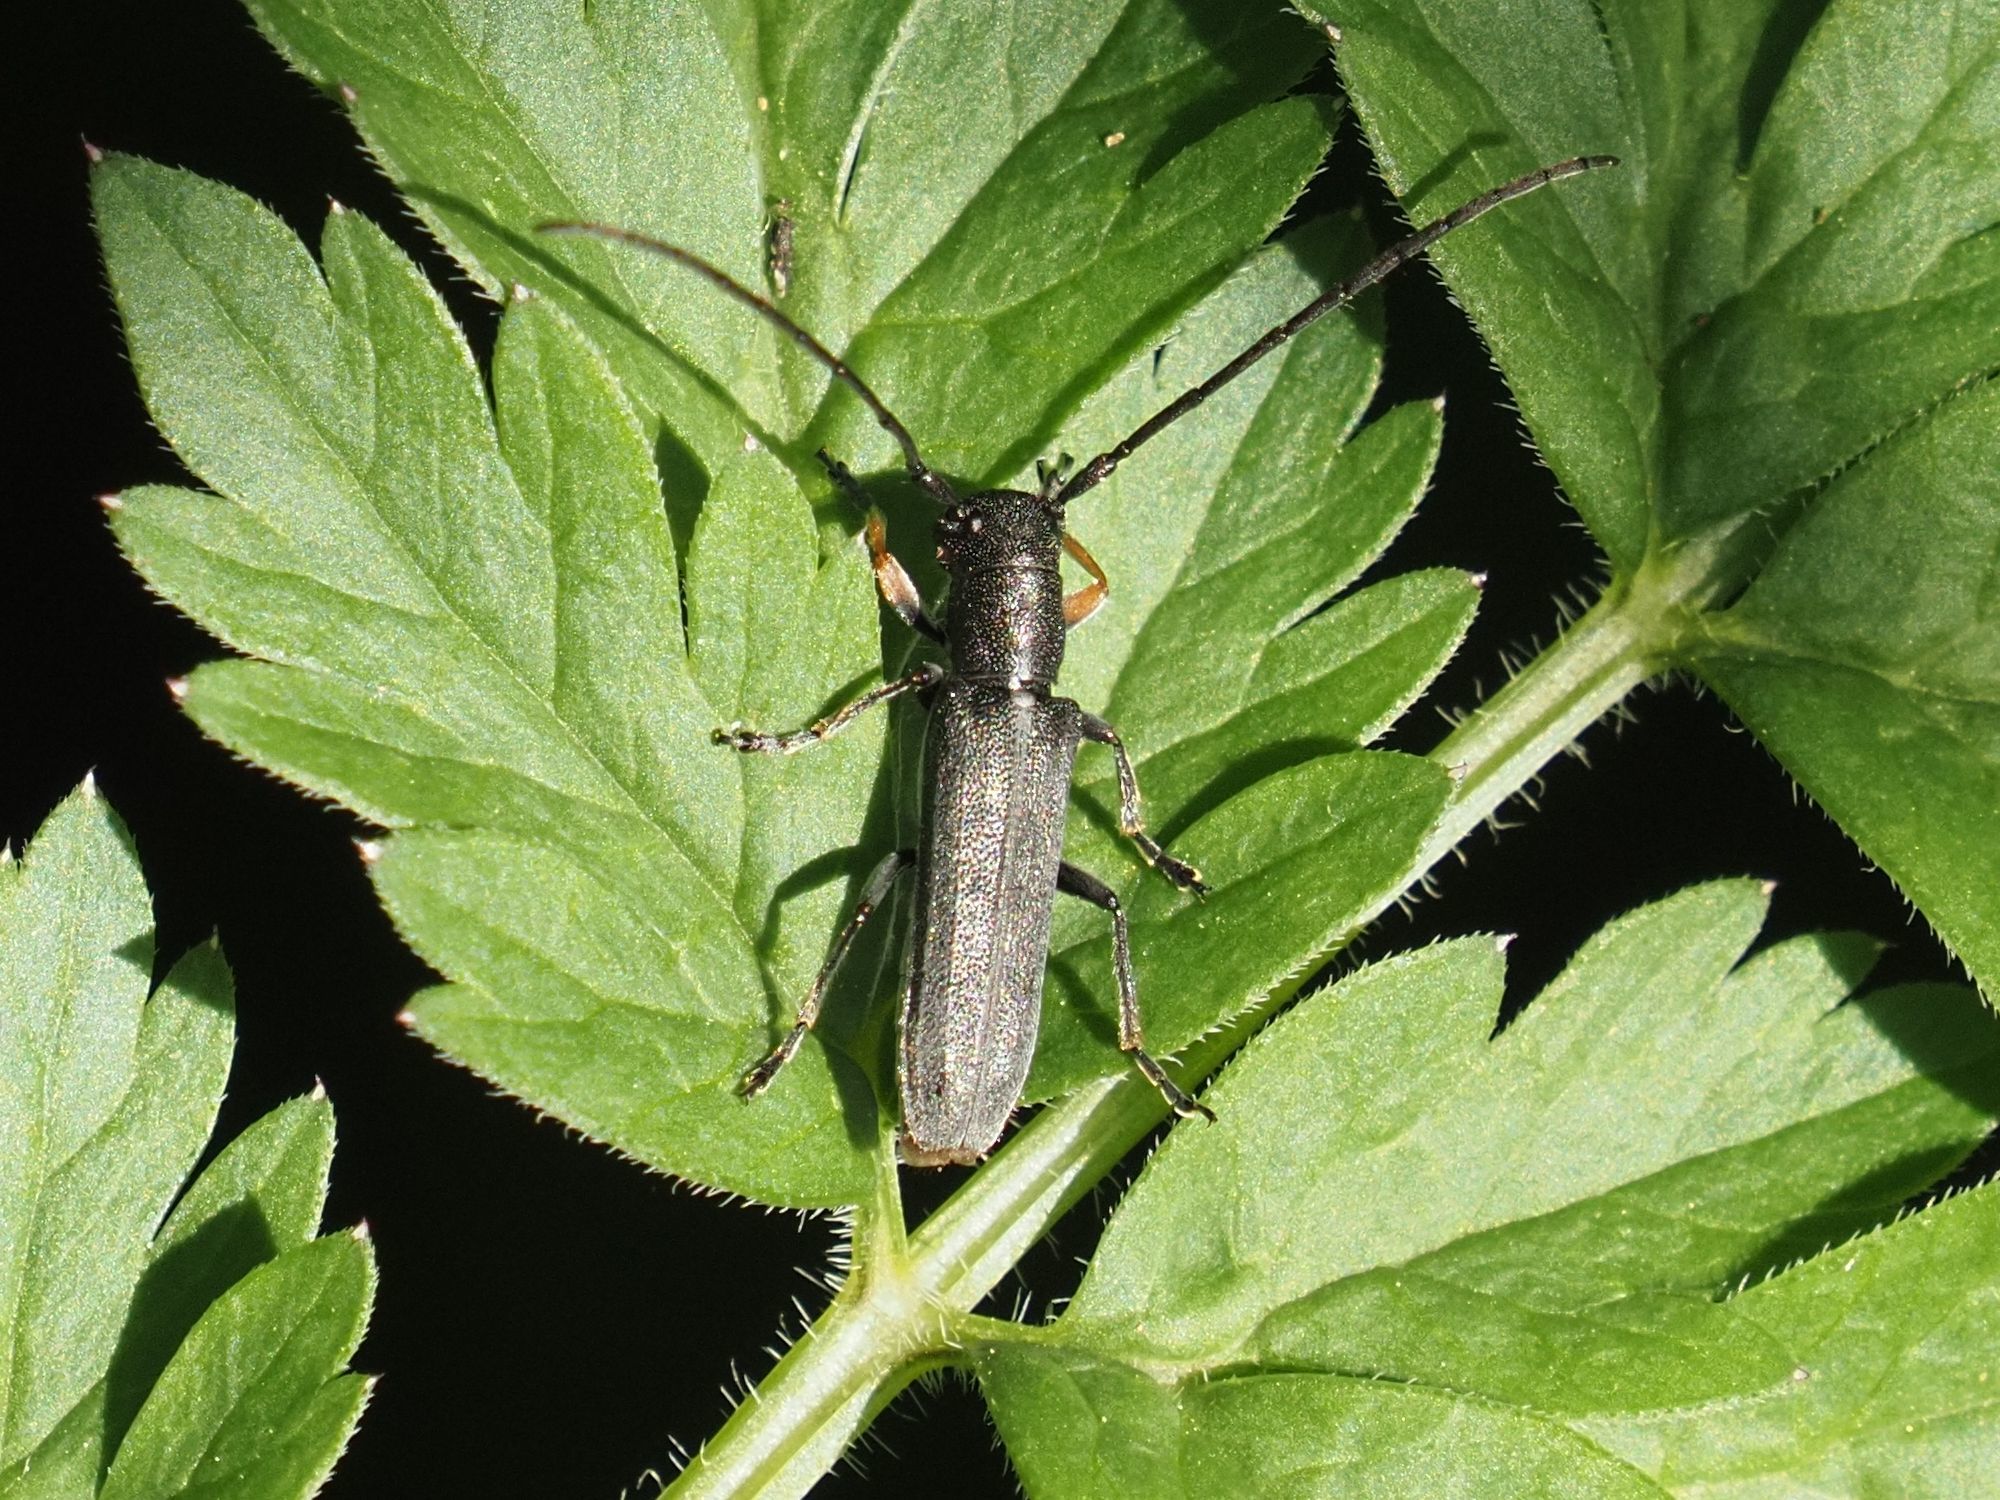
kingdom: Animalia
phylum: Arthropoda
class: Insecta
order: Coleoptera
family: Cerambycidae
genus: Phytoecia
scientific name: Phytoecia cylindrica
